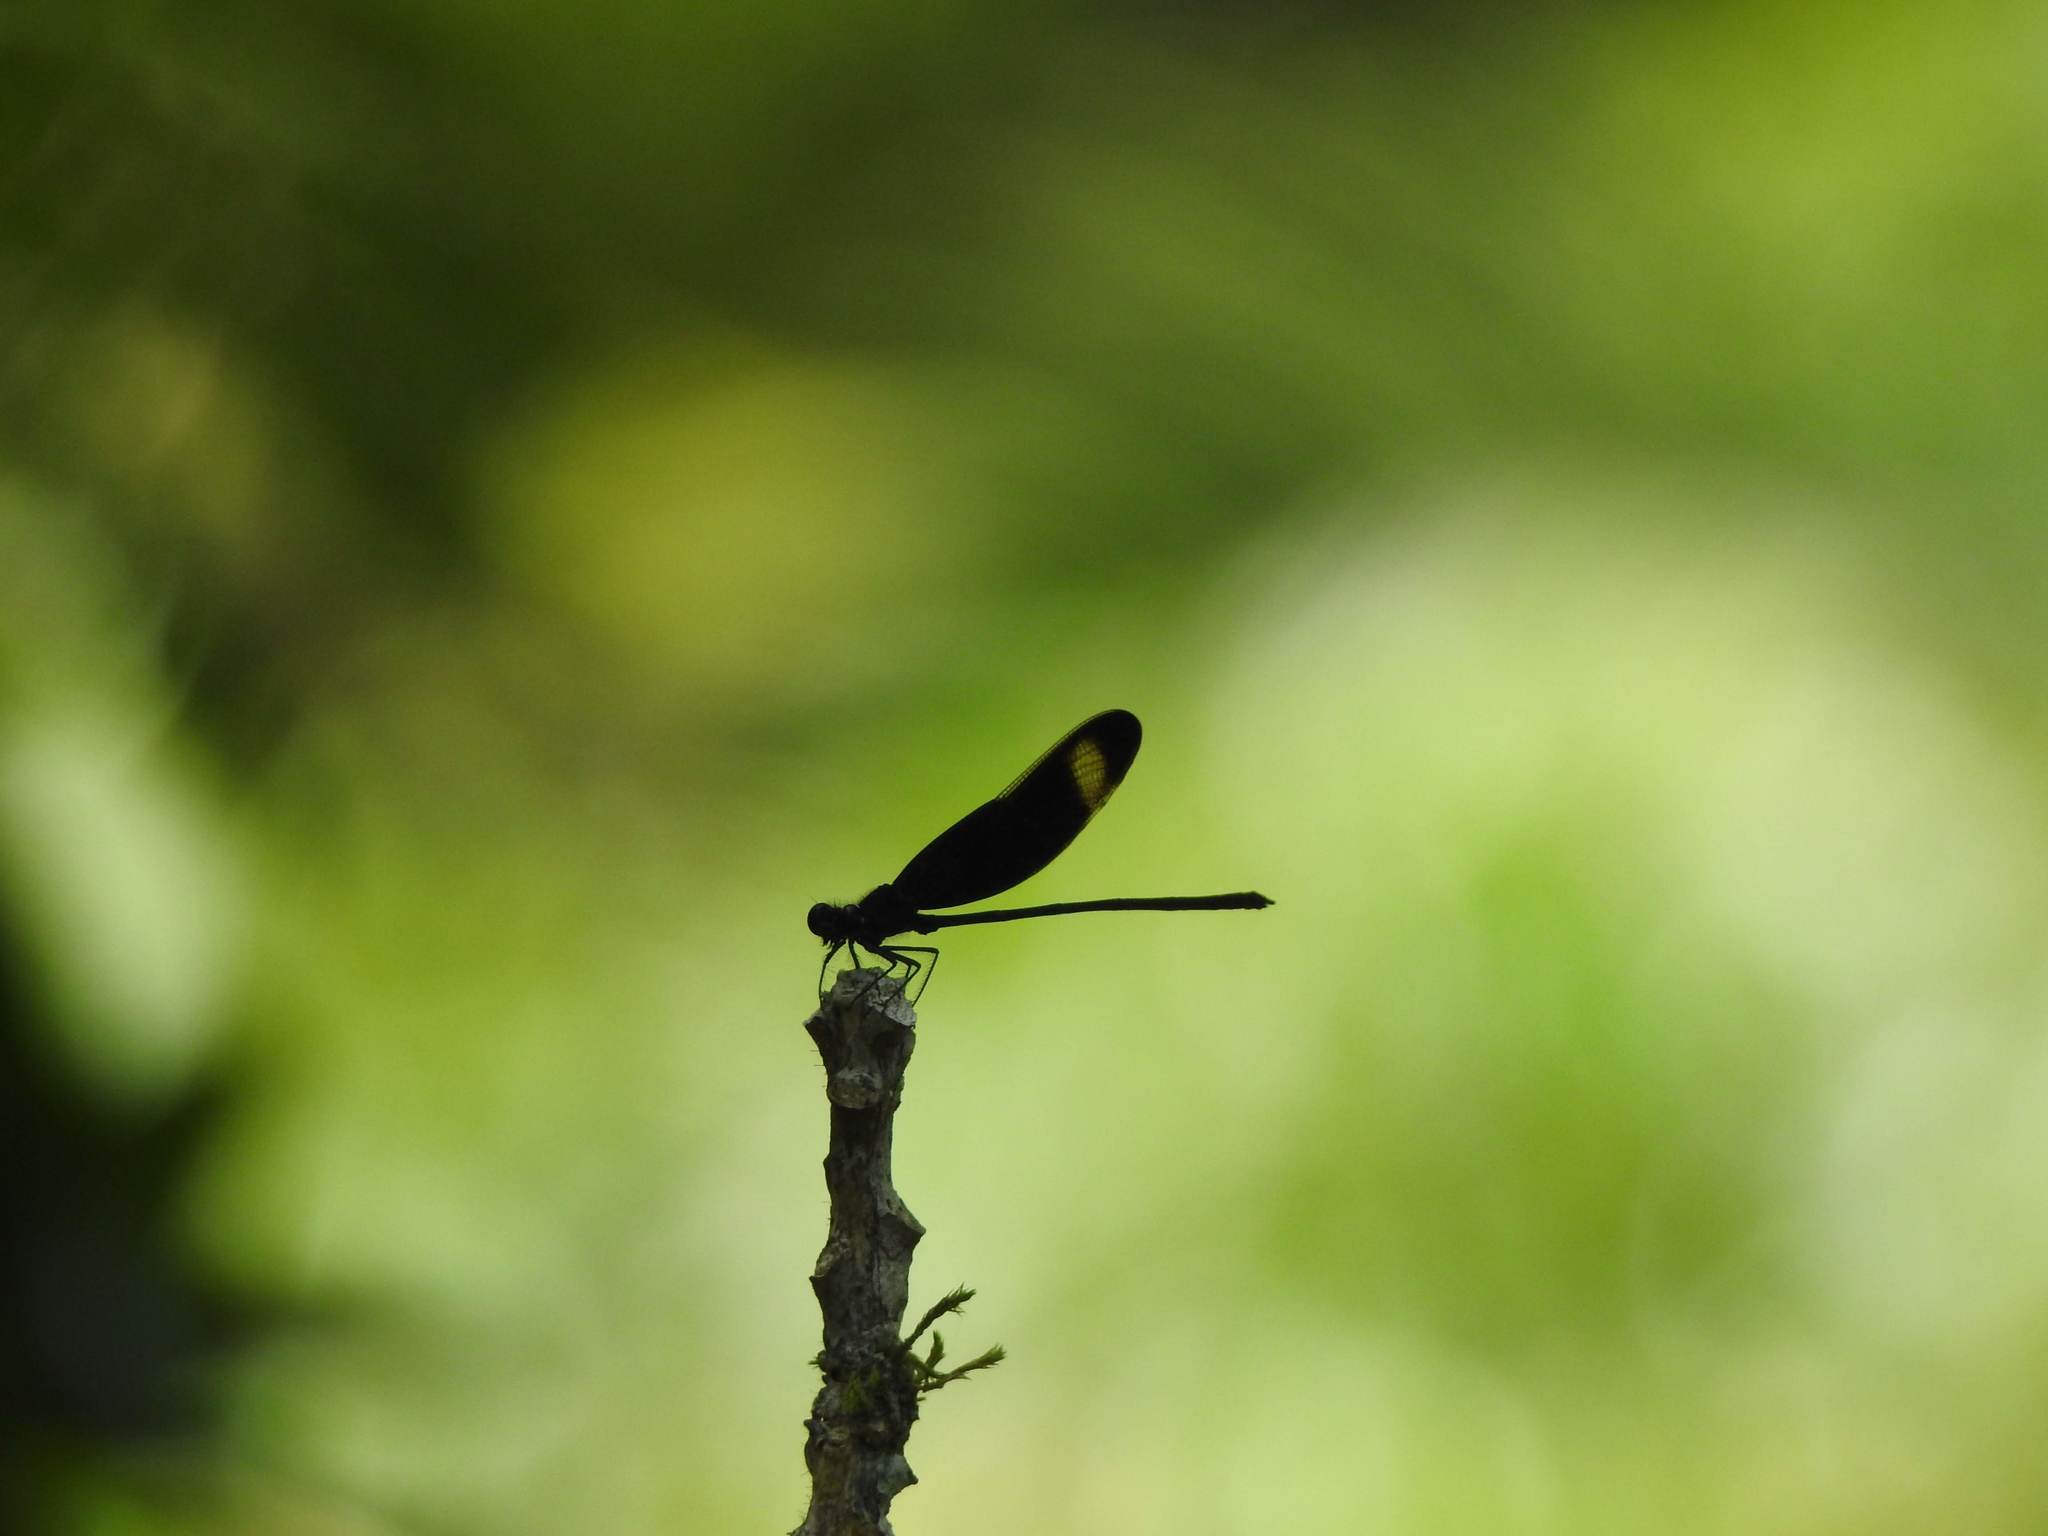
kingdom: Animalia
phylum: Arthropoda
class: Insecta
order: Odonata
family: Calopterygidae
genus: Hetaerina
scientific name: Hetaerina titia
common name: Smoky rubyspot
